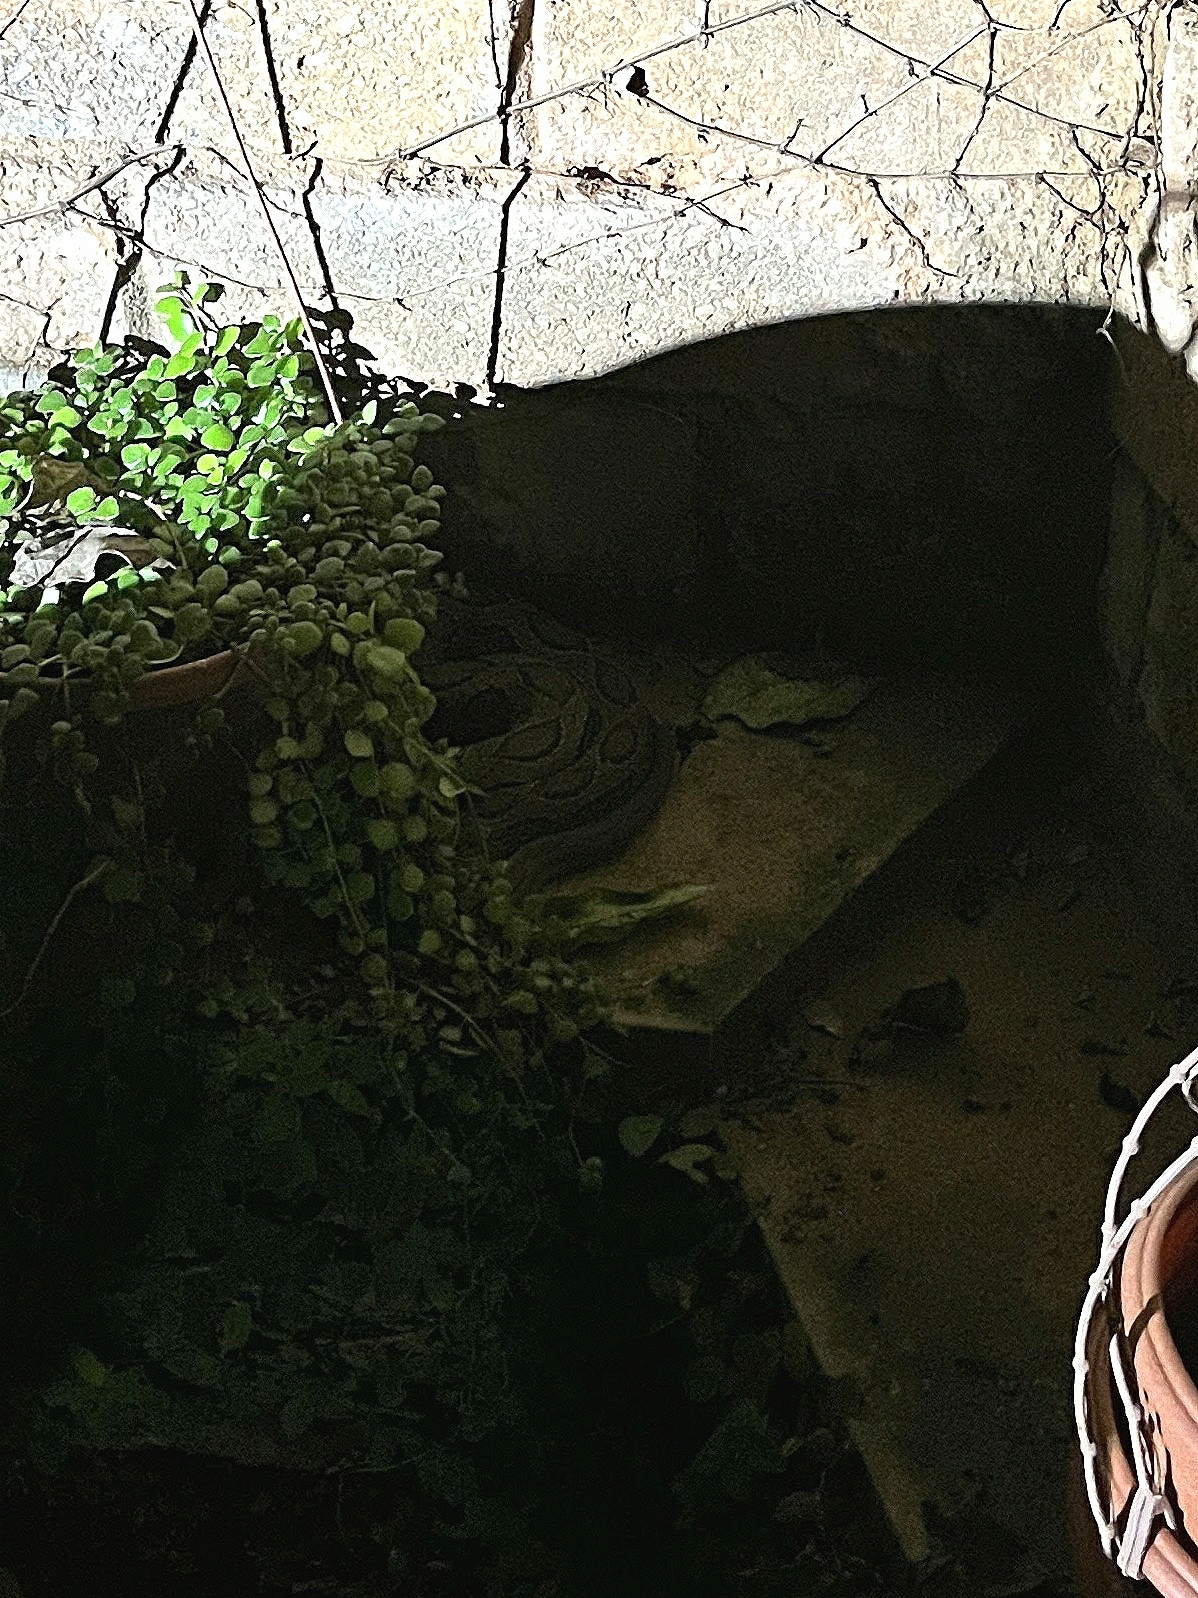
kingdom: Animalia
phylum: Chordata
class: Squamata
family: Viperidae
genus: Daboia
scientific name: Daboia russelii
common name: Western russel’s viper
